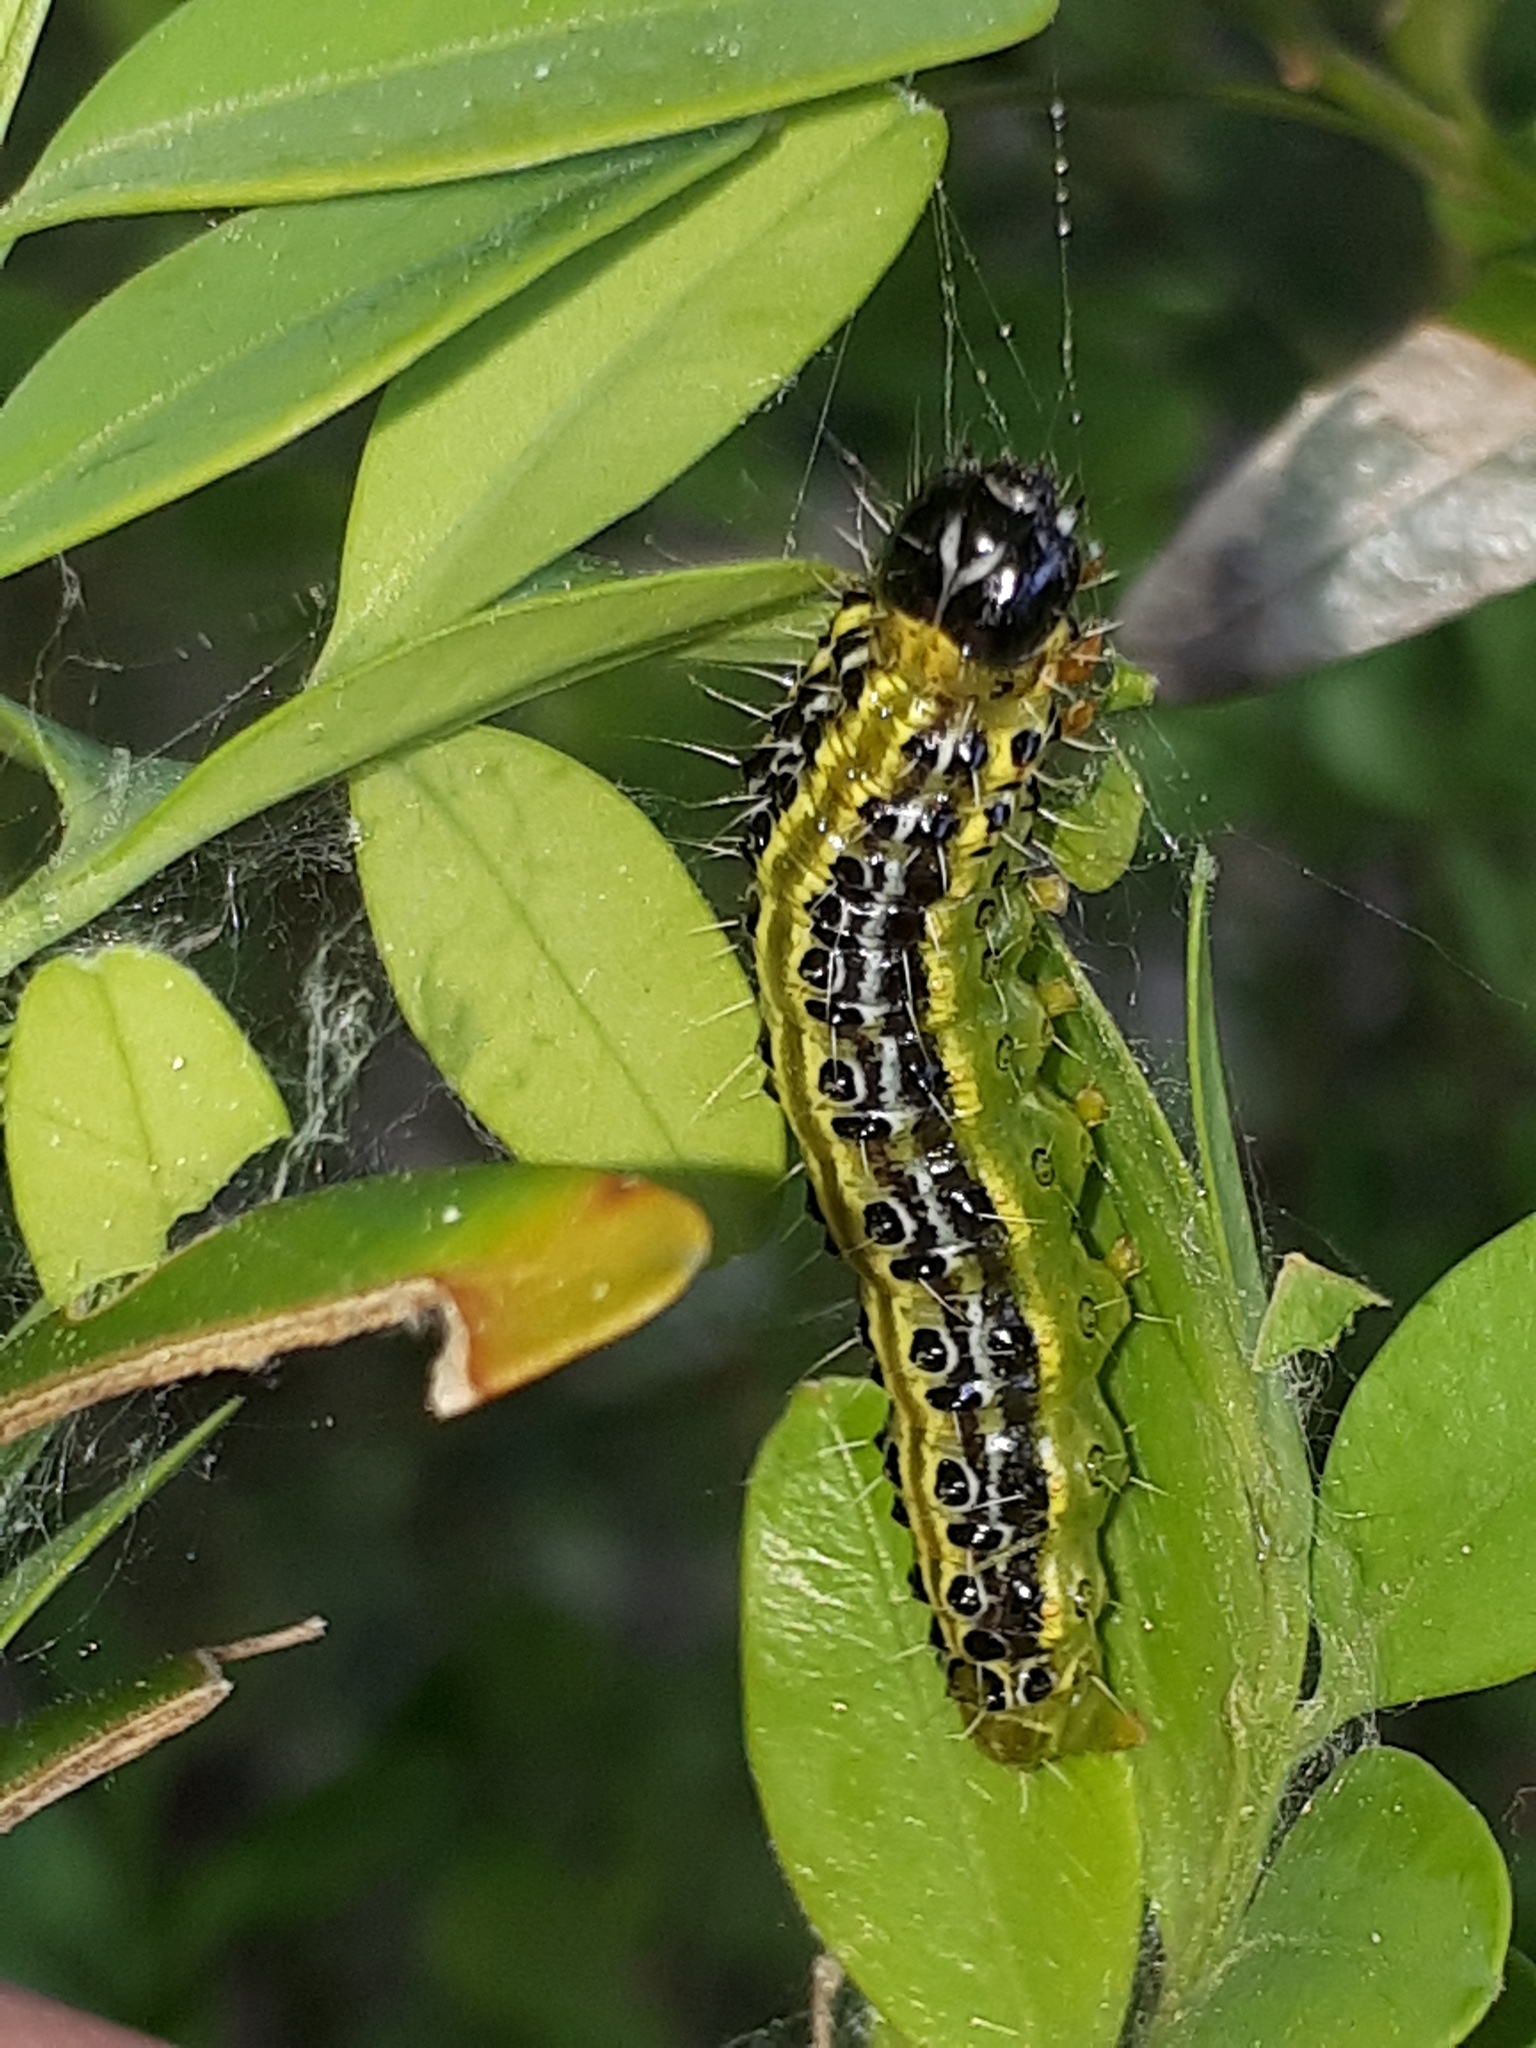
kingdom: Animalia
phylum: Arthropoda
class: Insecta
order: Lepidoptera
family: Crambidae
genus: Cydalima
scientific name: Cydalima perspectalis
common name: Box tree moth
